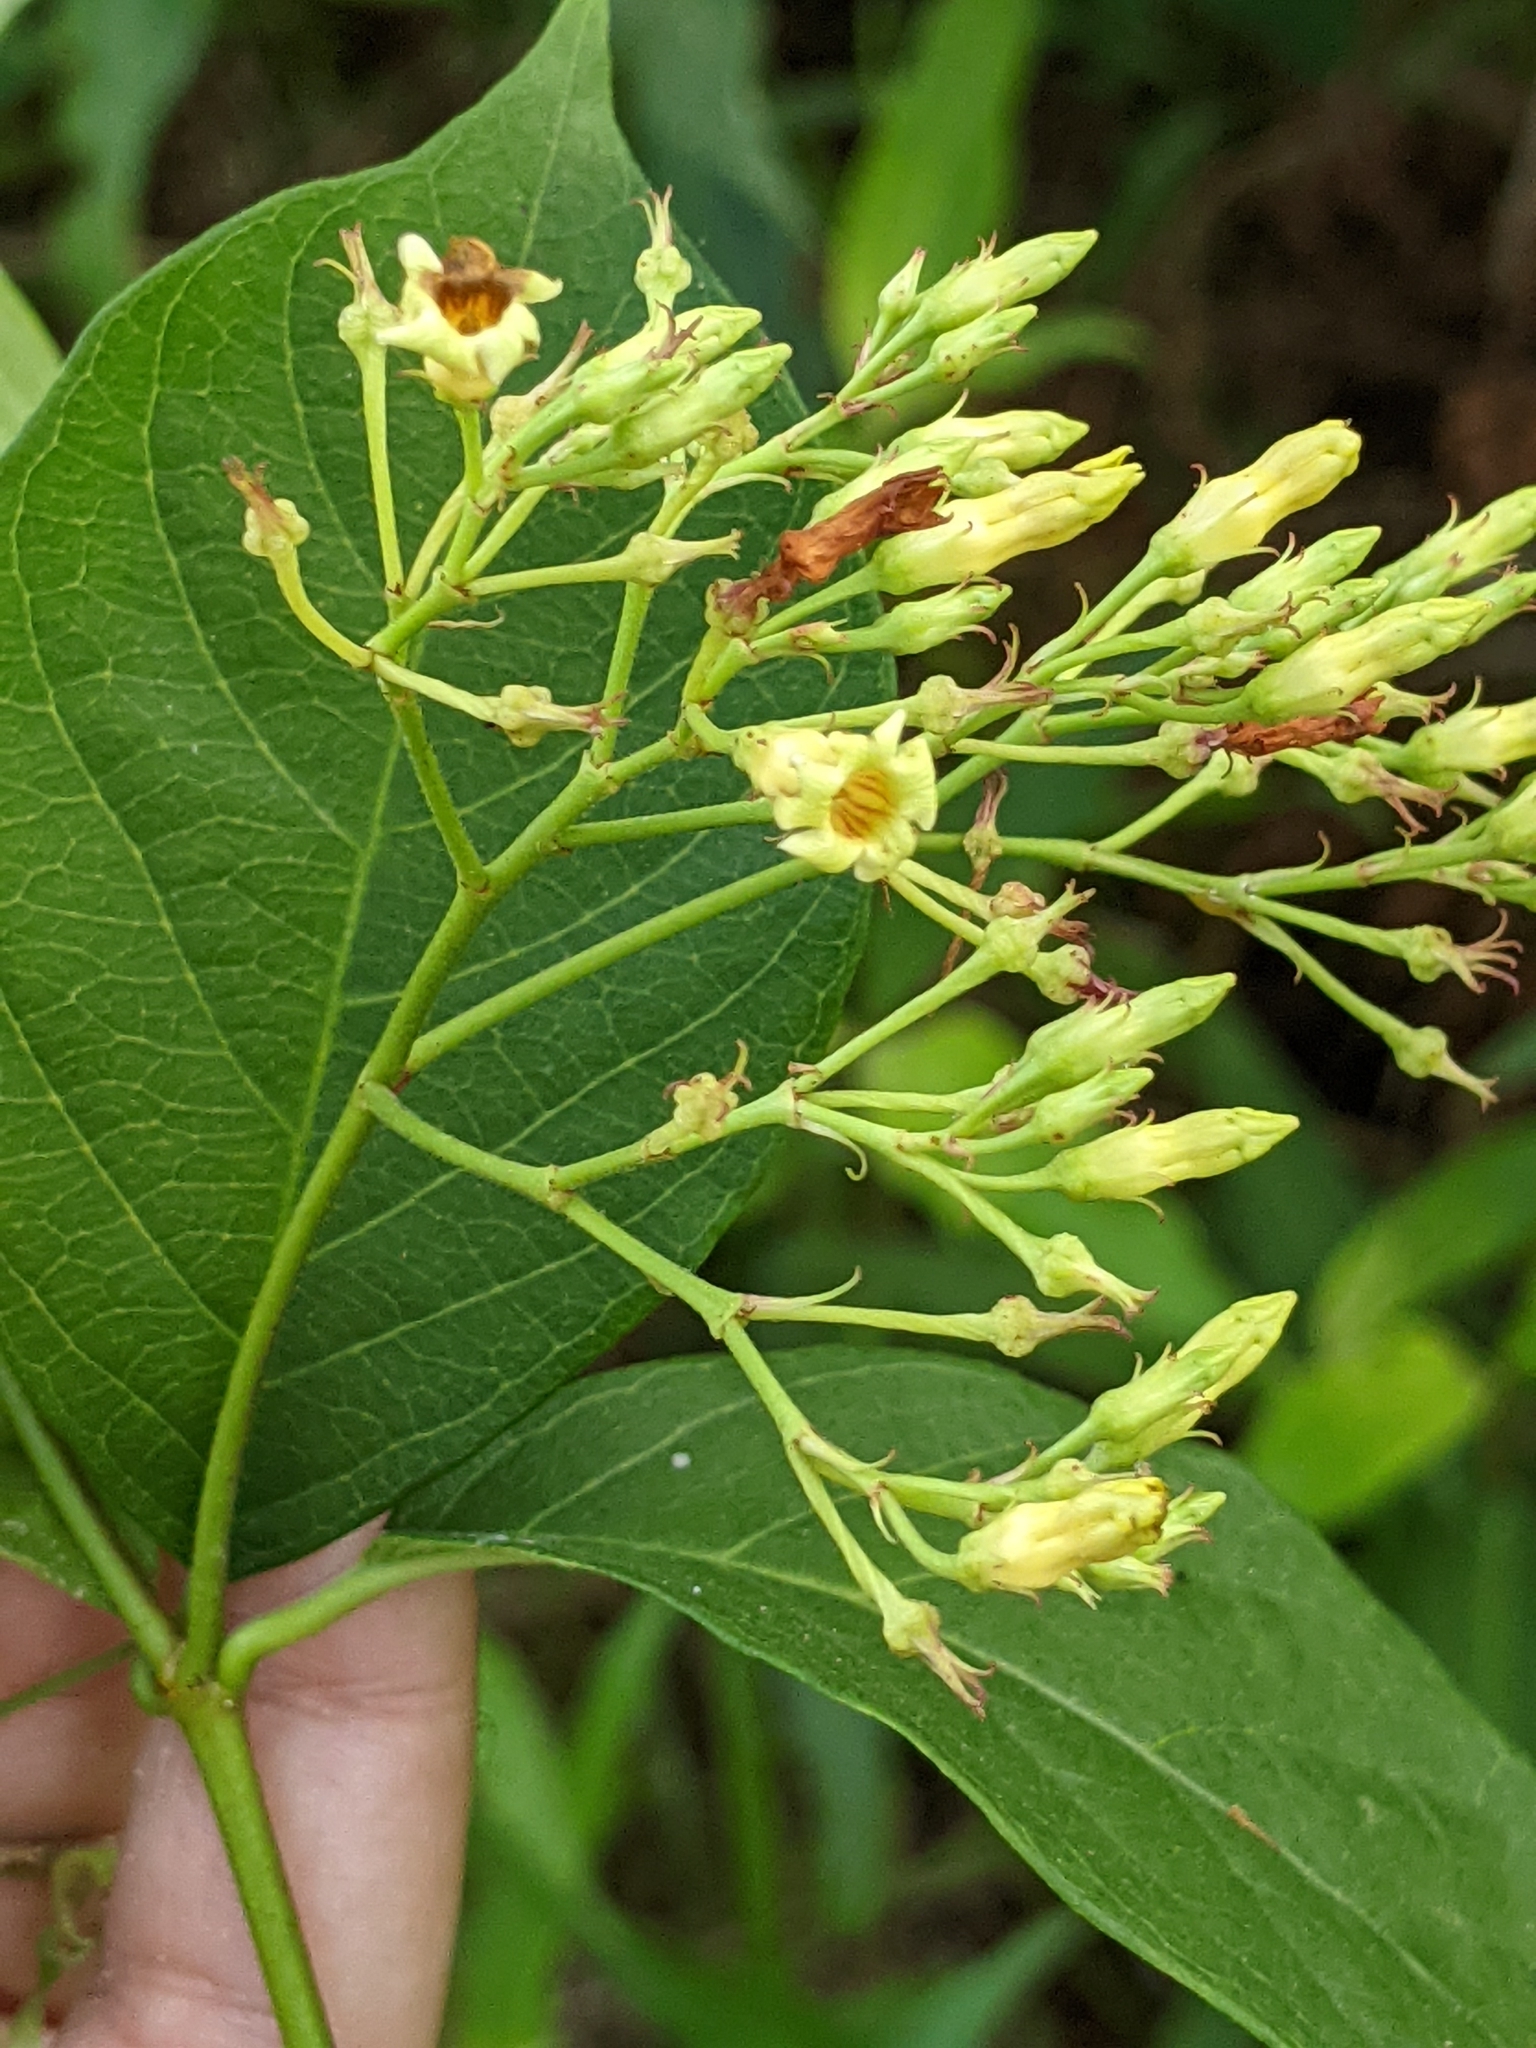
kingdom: Plantae
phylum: Tracheophyta
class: Magnoliopsida
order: Gentianales
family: Apocynaceae
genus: Thyrsanthella
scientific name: Thyrsanthella difformis
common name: Climbing dogbane
